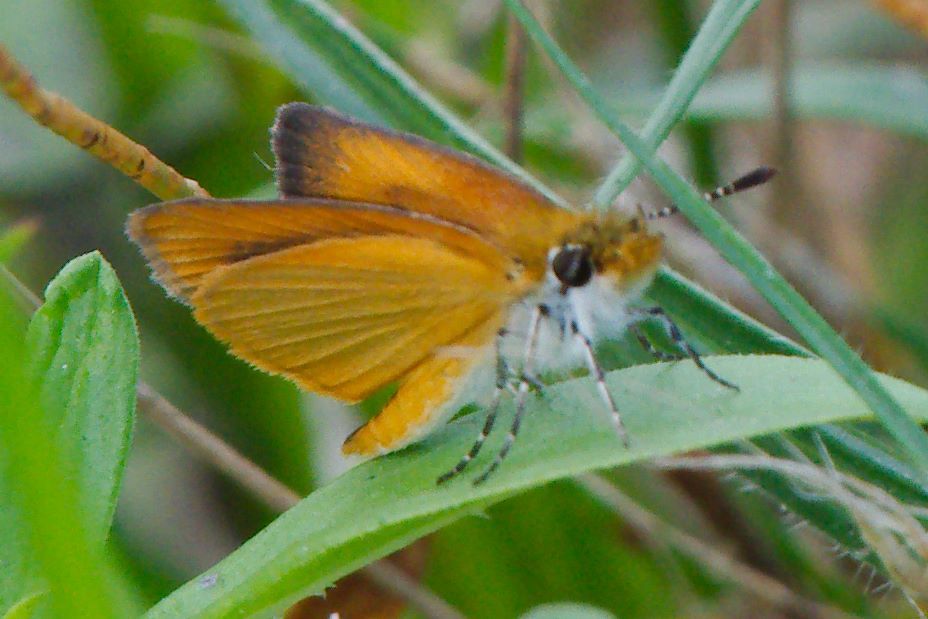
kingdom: Animalia
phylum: Arthropoda
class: Insecta
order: Lepidoptera
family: Hesperiidae
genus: Ancyloxypha
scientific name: Ancyloxypha numitor
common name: Least skipper
